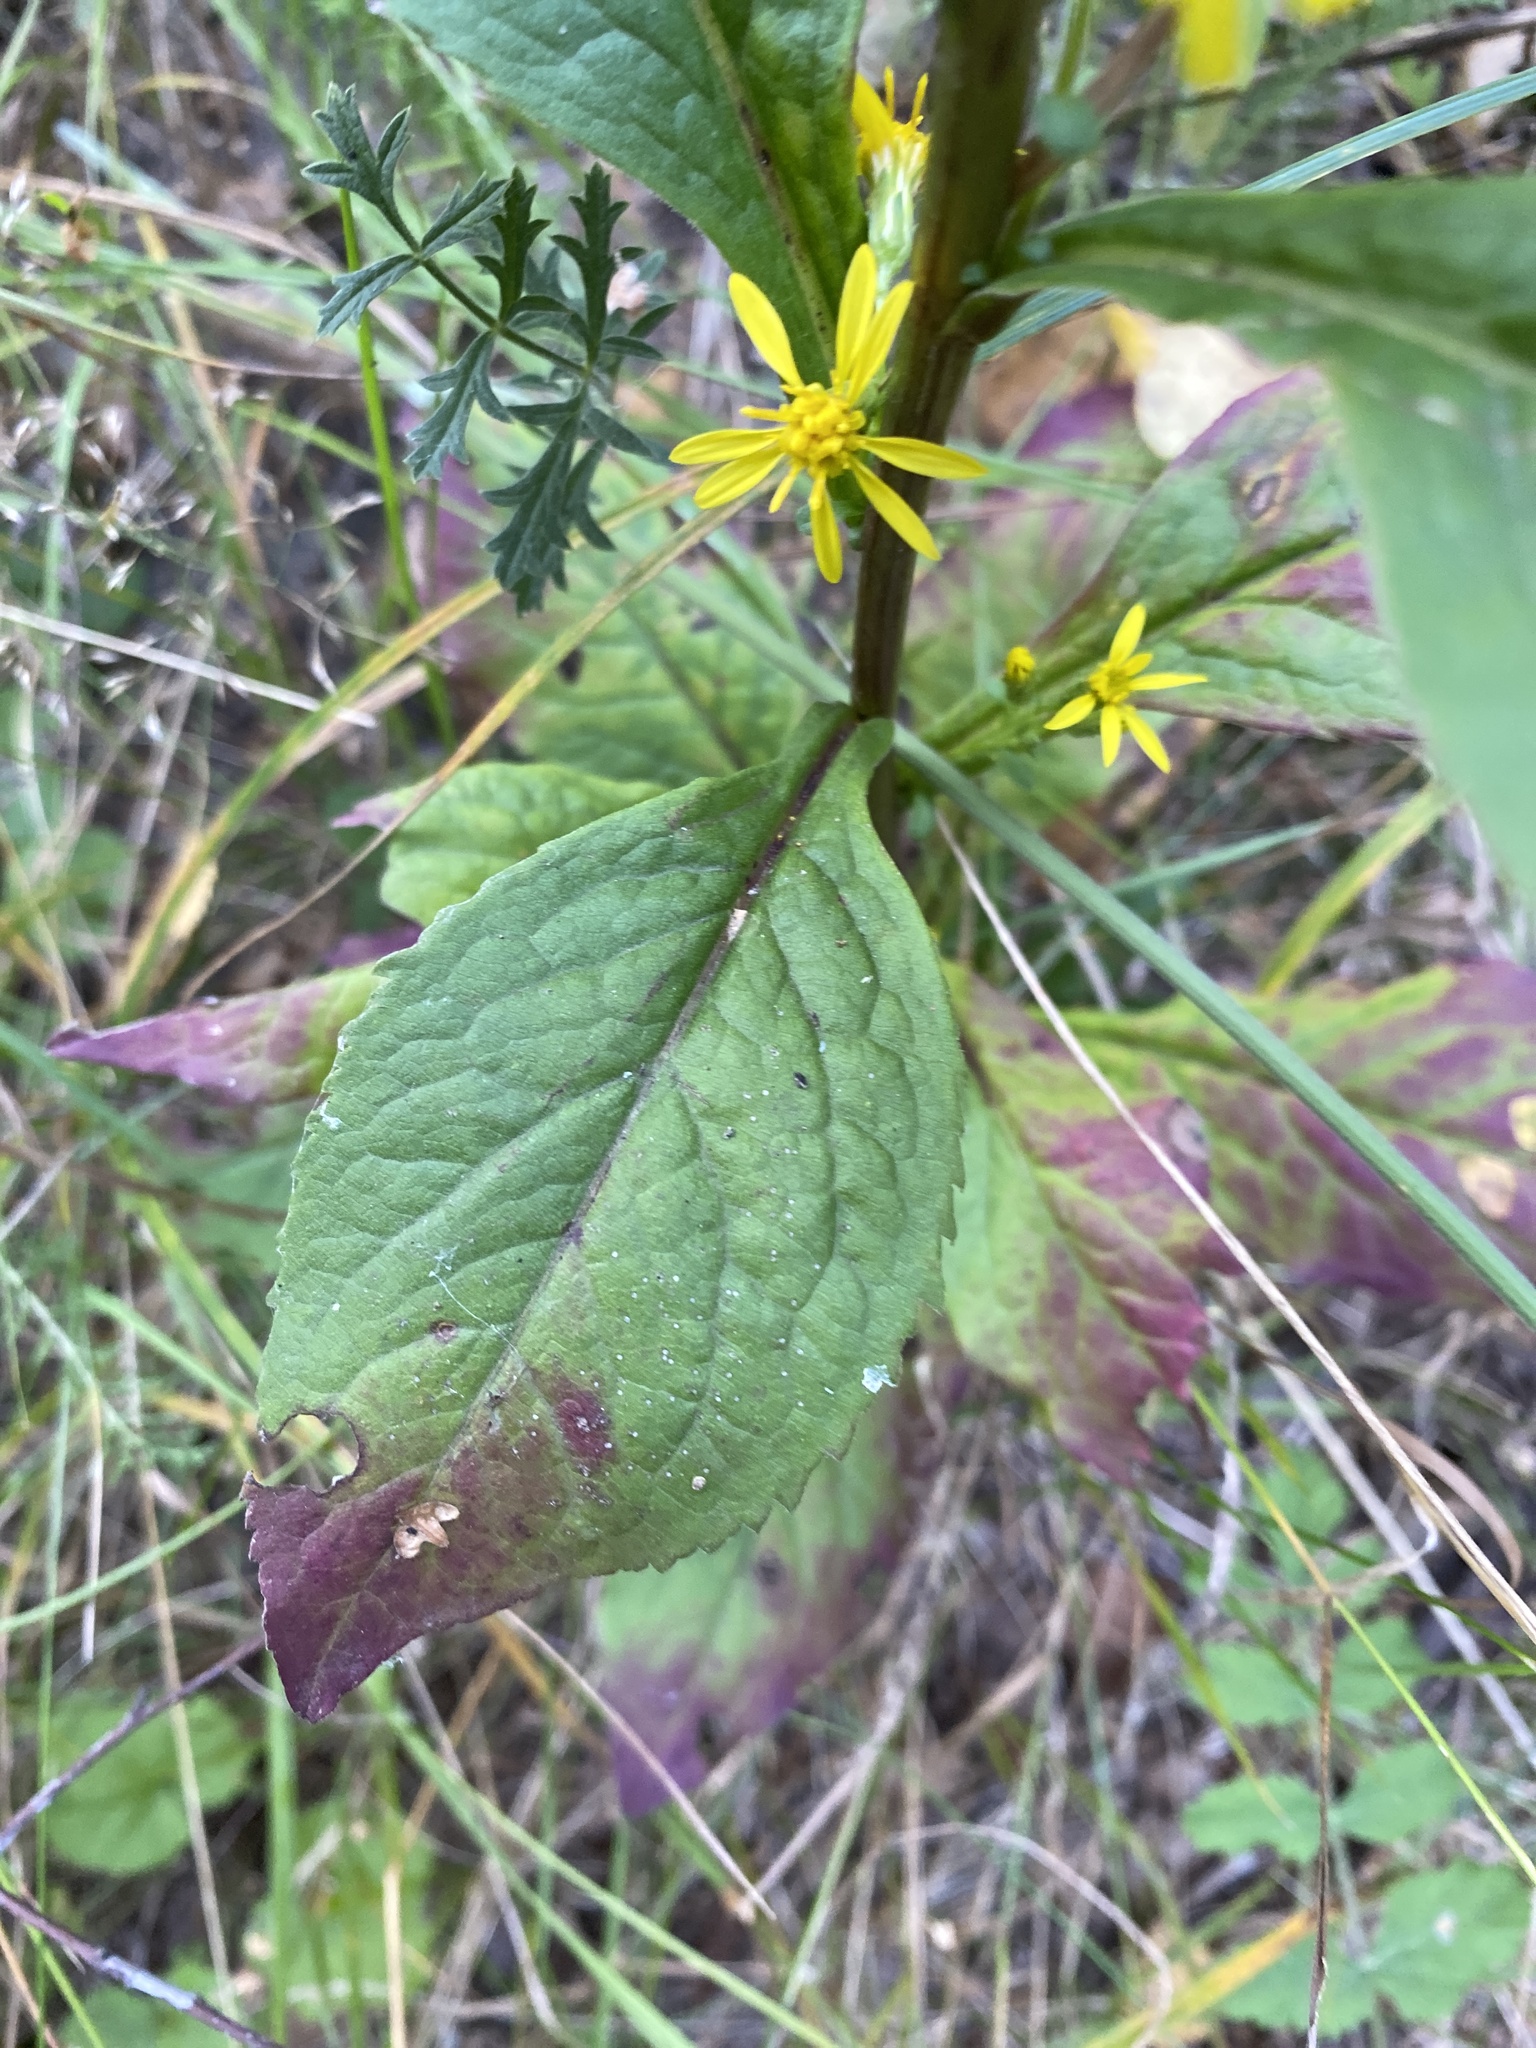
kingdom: Plantae
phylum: Tracheophyta
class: Magnoliopsida
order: Asterales
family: Asteraceae
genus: Solidago
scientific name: Solidago virgaurea
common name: Goldenrod
